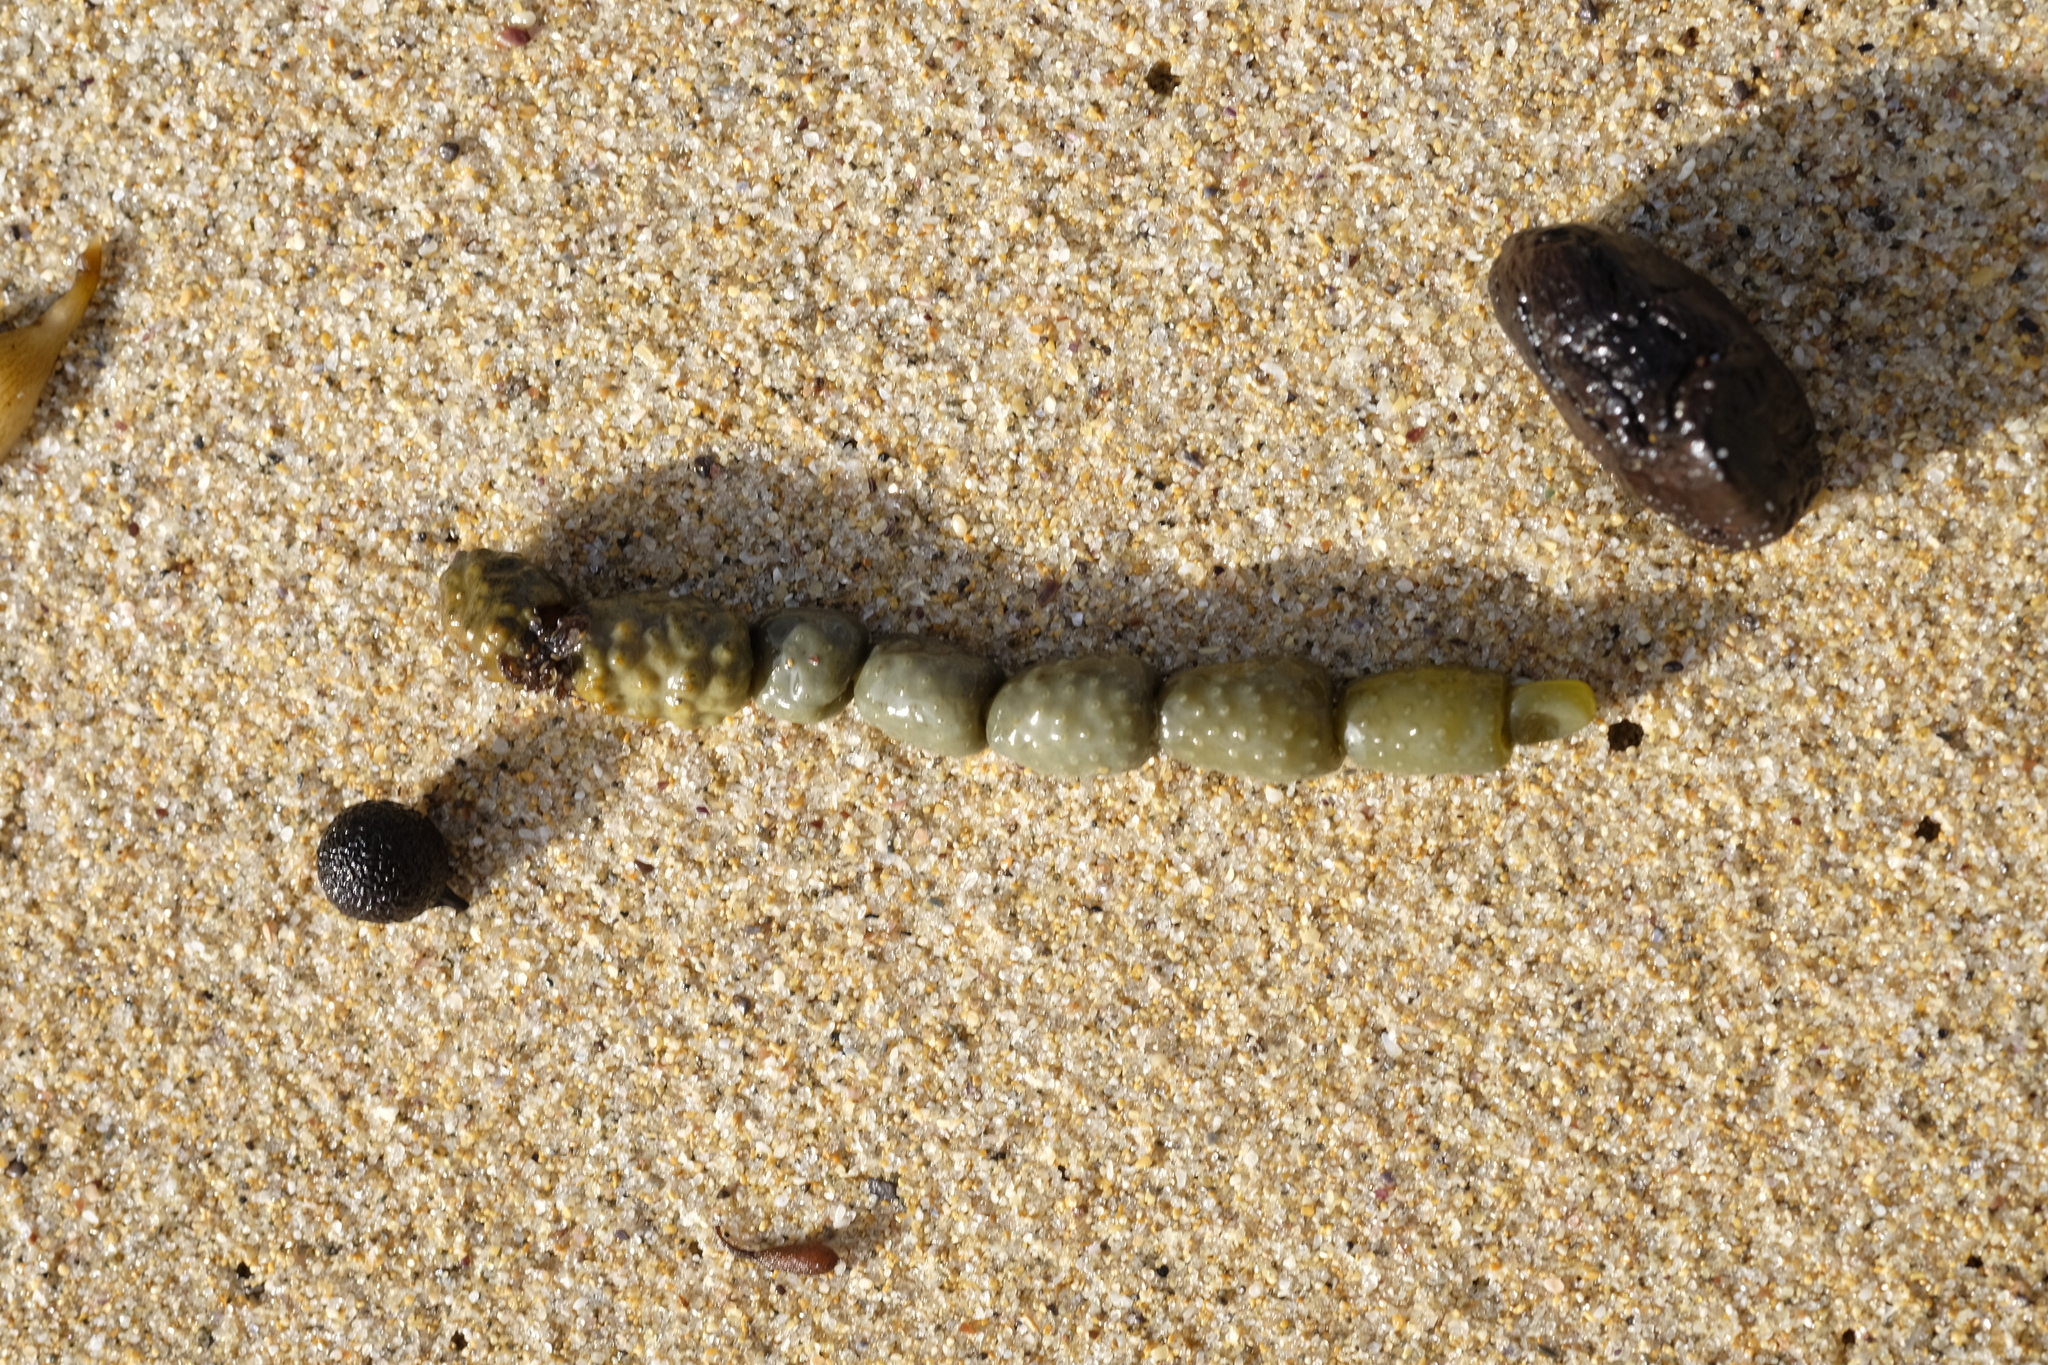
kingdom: Chromista
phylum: Ochrophyta
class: Phaeophyceae
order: Fucales
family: Hormosiraceae
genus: Hormosira
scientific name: Hormosira banksii
